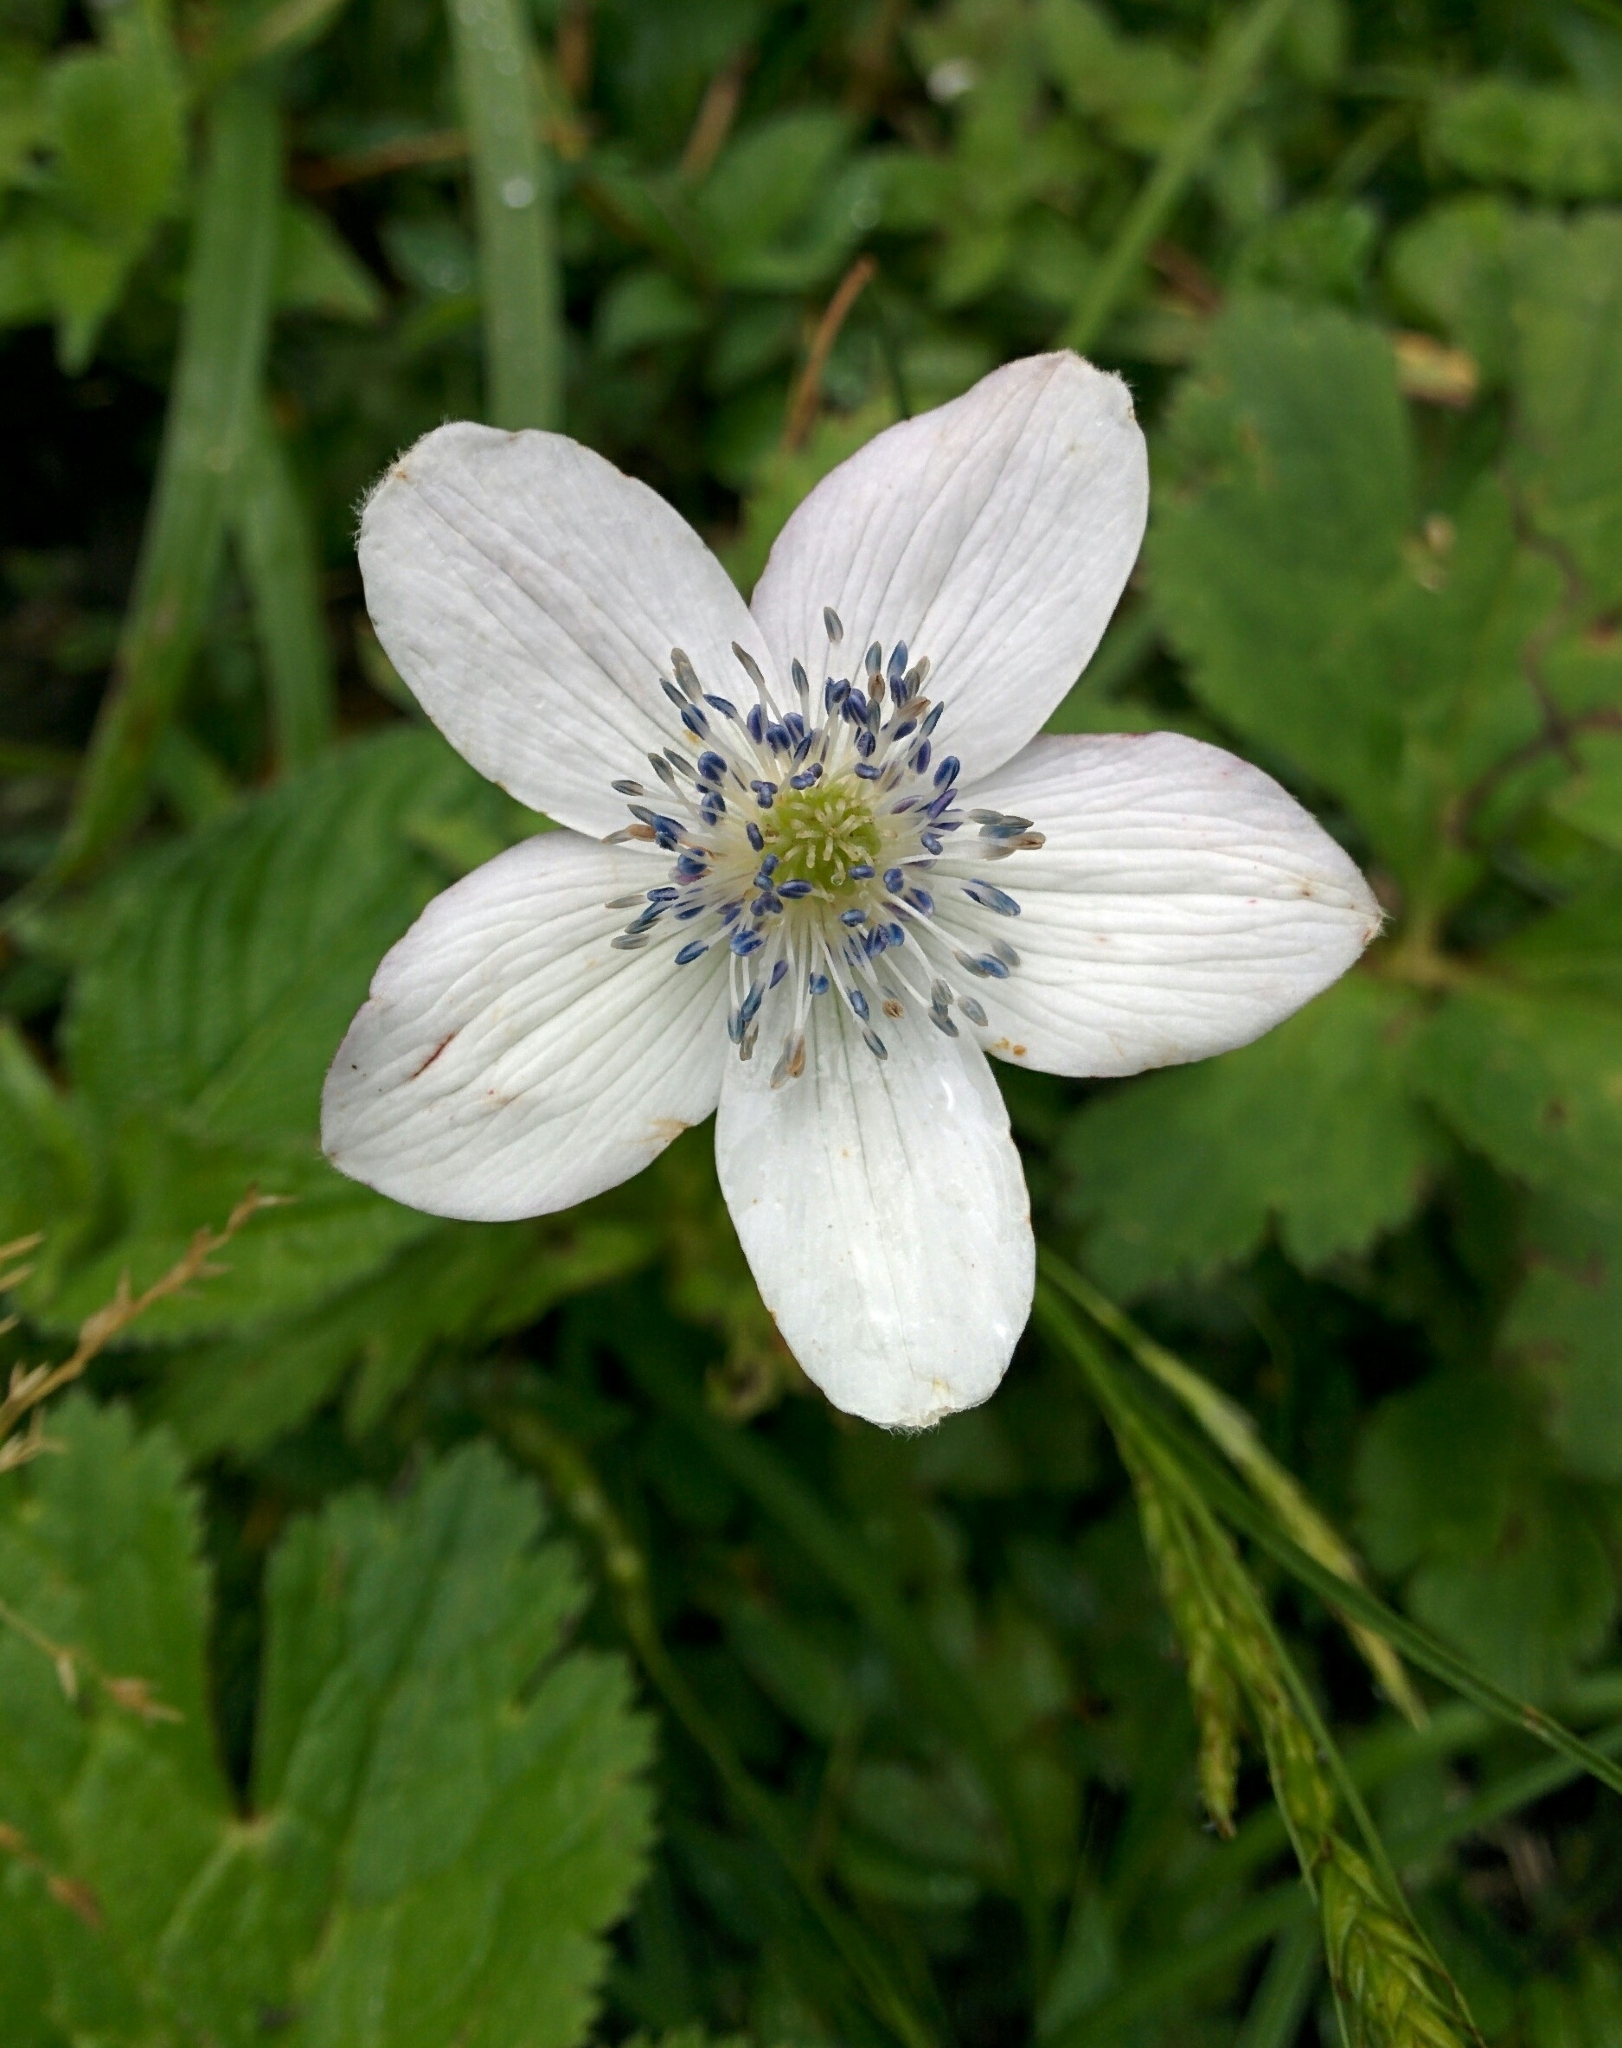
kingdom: Plantae
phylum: Tracheophyta
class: Magnoliopsida
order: Ranunculales
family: Ranunculaceae
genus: Eriocapitella
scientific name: Eriocapitella rivularis
